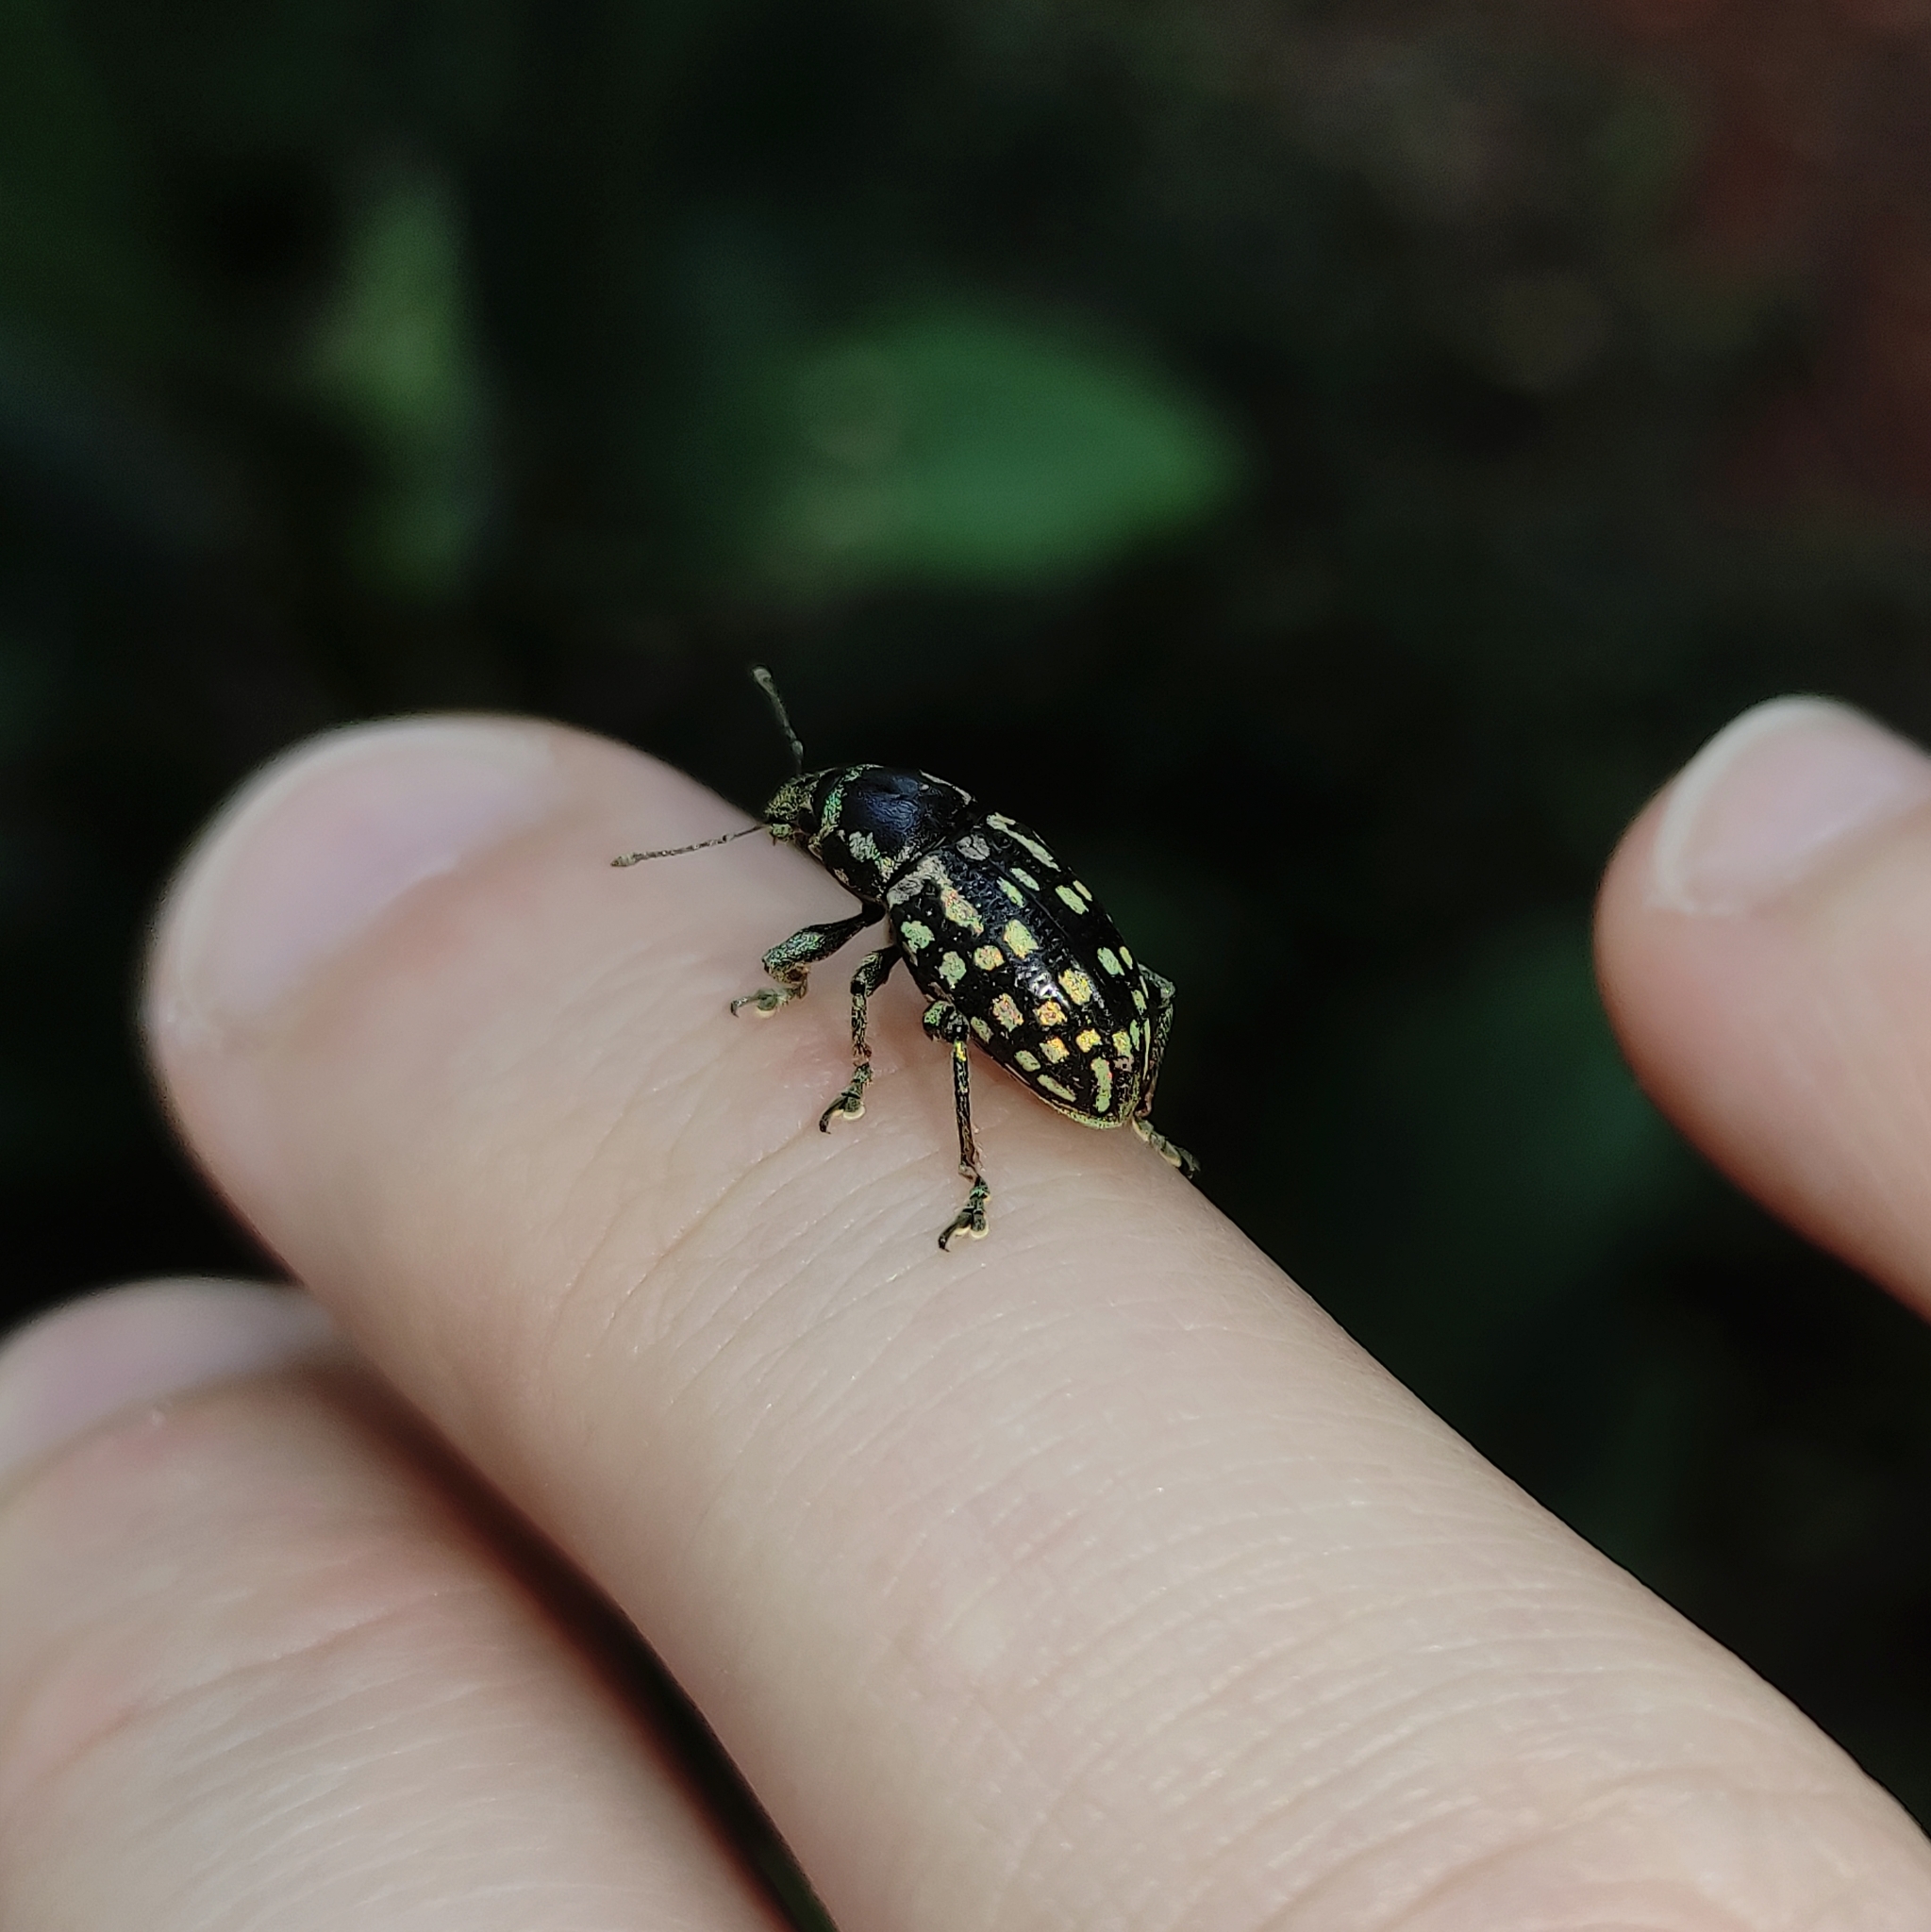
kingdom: Animalia
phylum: Arthropoda
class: Insecta
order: Coleoptera
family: Curculionidae
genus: Lordops
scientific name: Lordops schoenhelri
